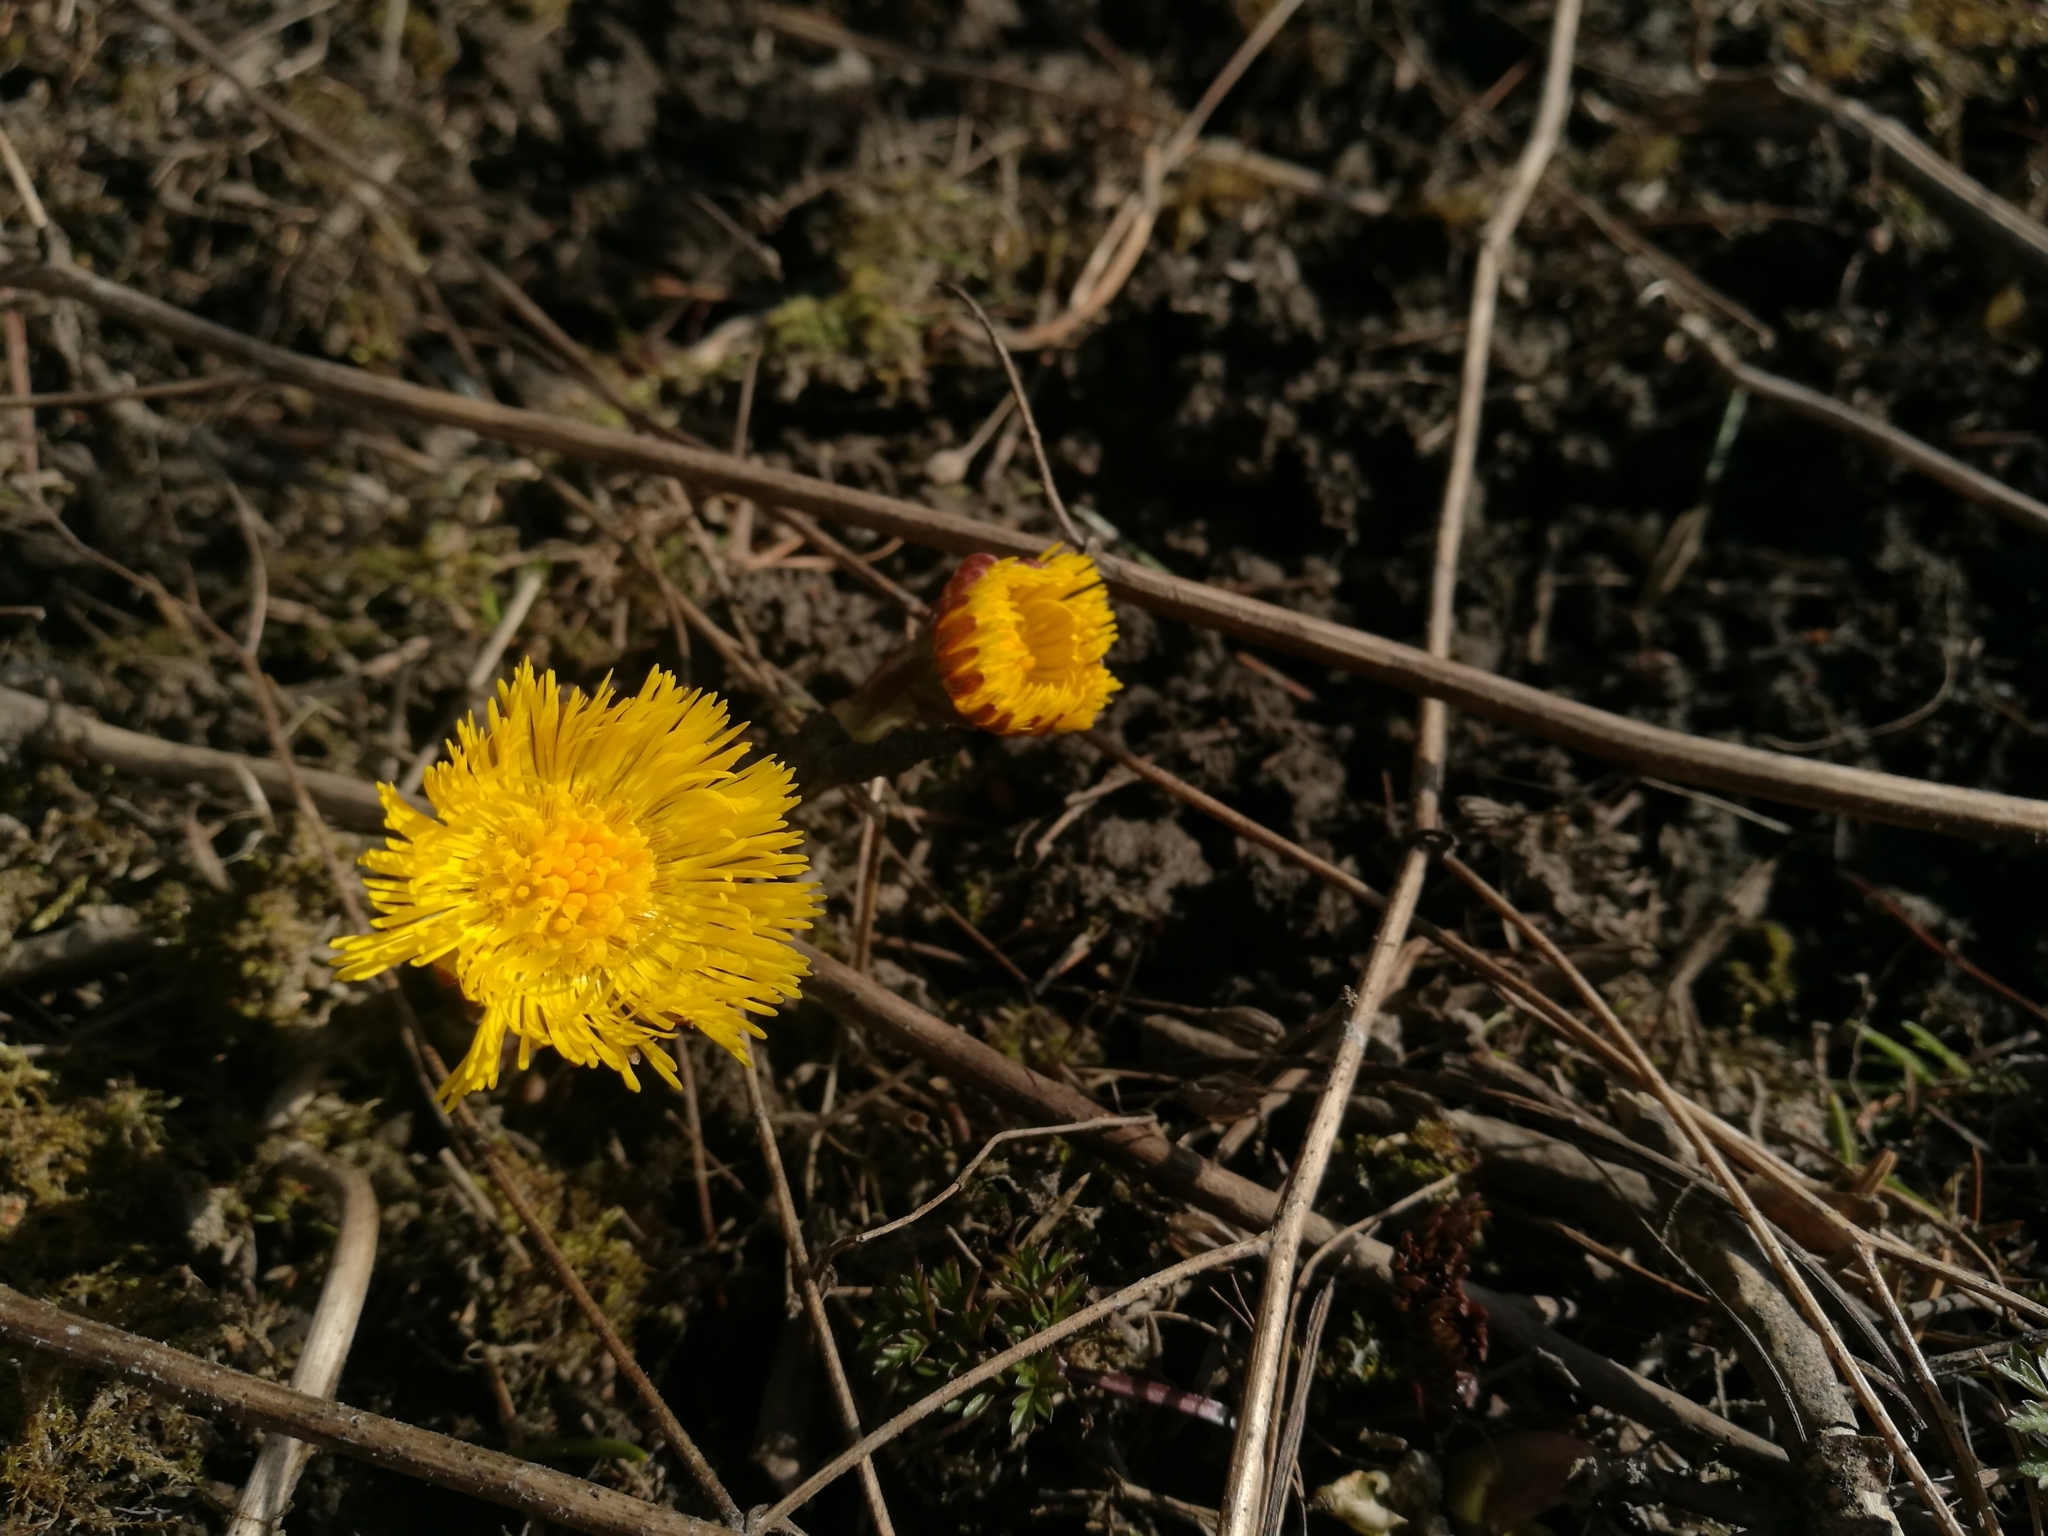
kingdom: Plantae
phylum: Tracheophyta
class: Magnoliopsida
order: Asterales
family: Asteraceae
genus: Tussilago
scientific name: Tussilago farfara
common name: Coltsfoot
